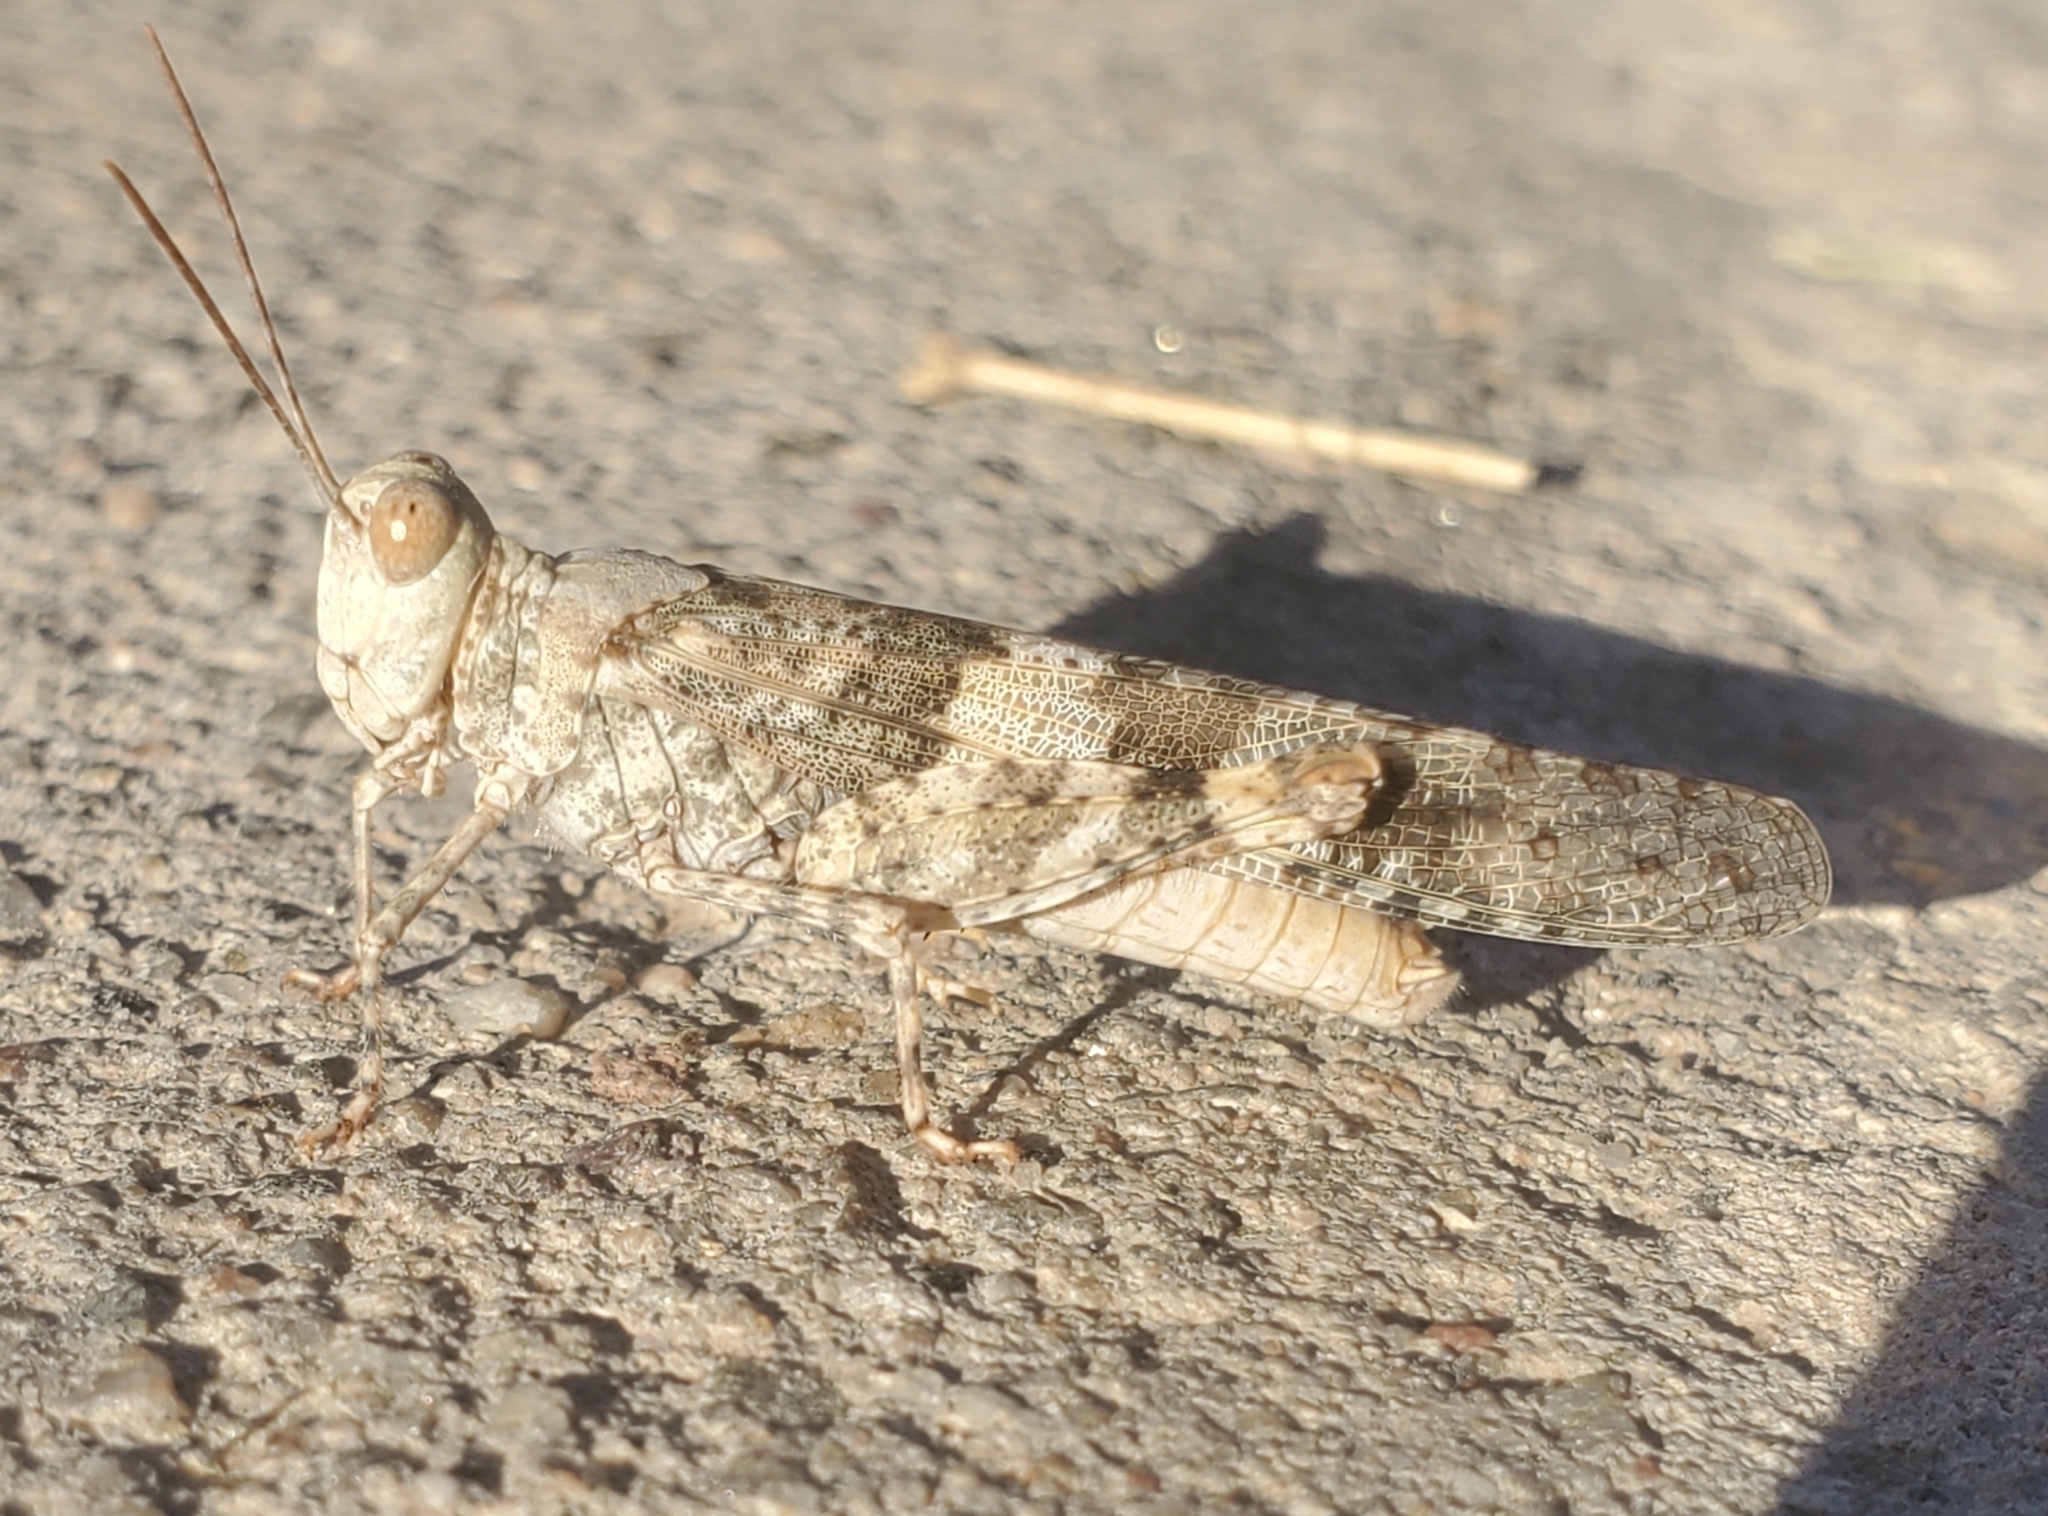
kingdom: Animalia
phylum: Arthropoda
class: Insecta
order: Orthoptera
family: Acrididae
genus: Trimerotropis
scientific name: Trimerotropis pallidipennis
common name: Pallid-winged grasshopper
